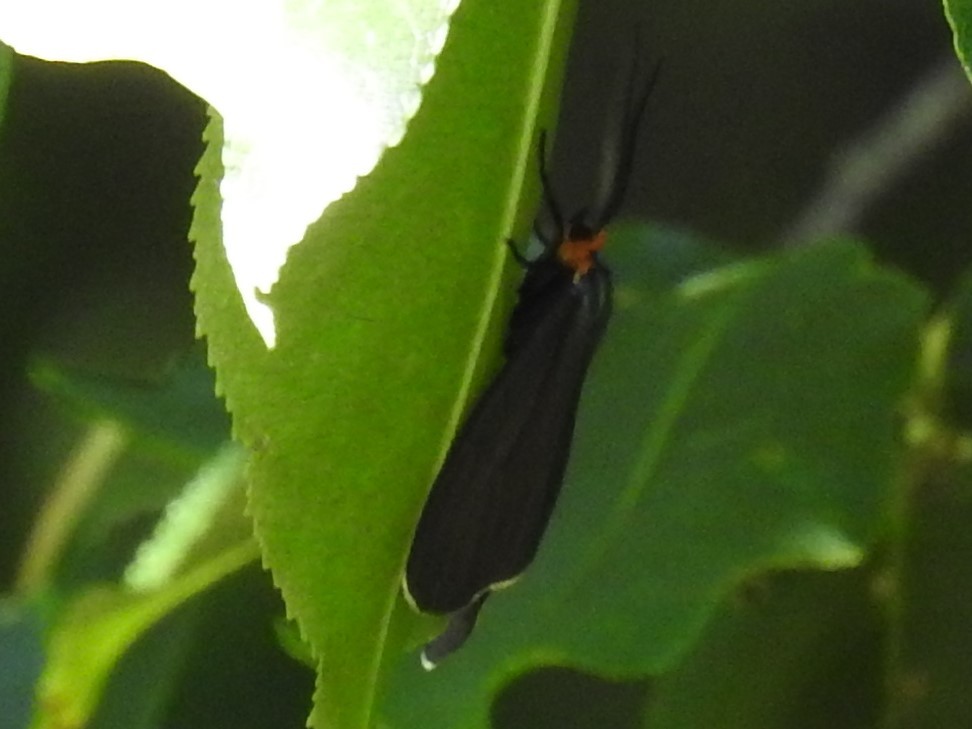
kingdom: Animalia
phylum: Arthropoda
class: Insecta
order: Lepidoptera
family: Erebidae
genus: Ctenucha
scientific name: Ctenucha virginica
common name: Virginia ctenucha moth
